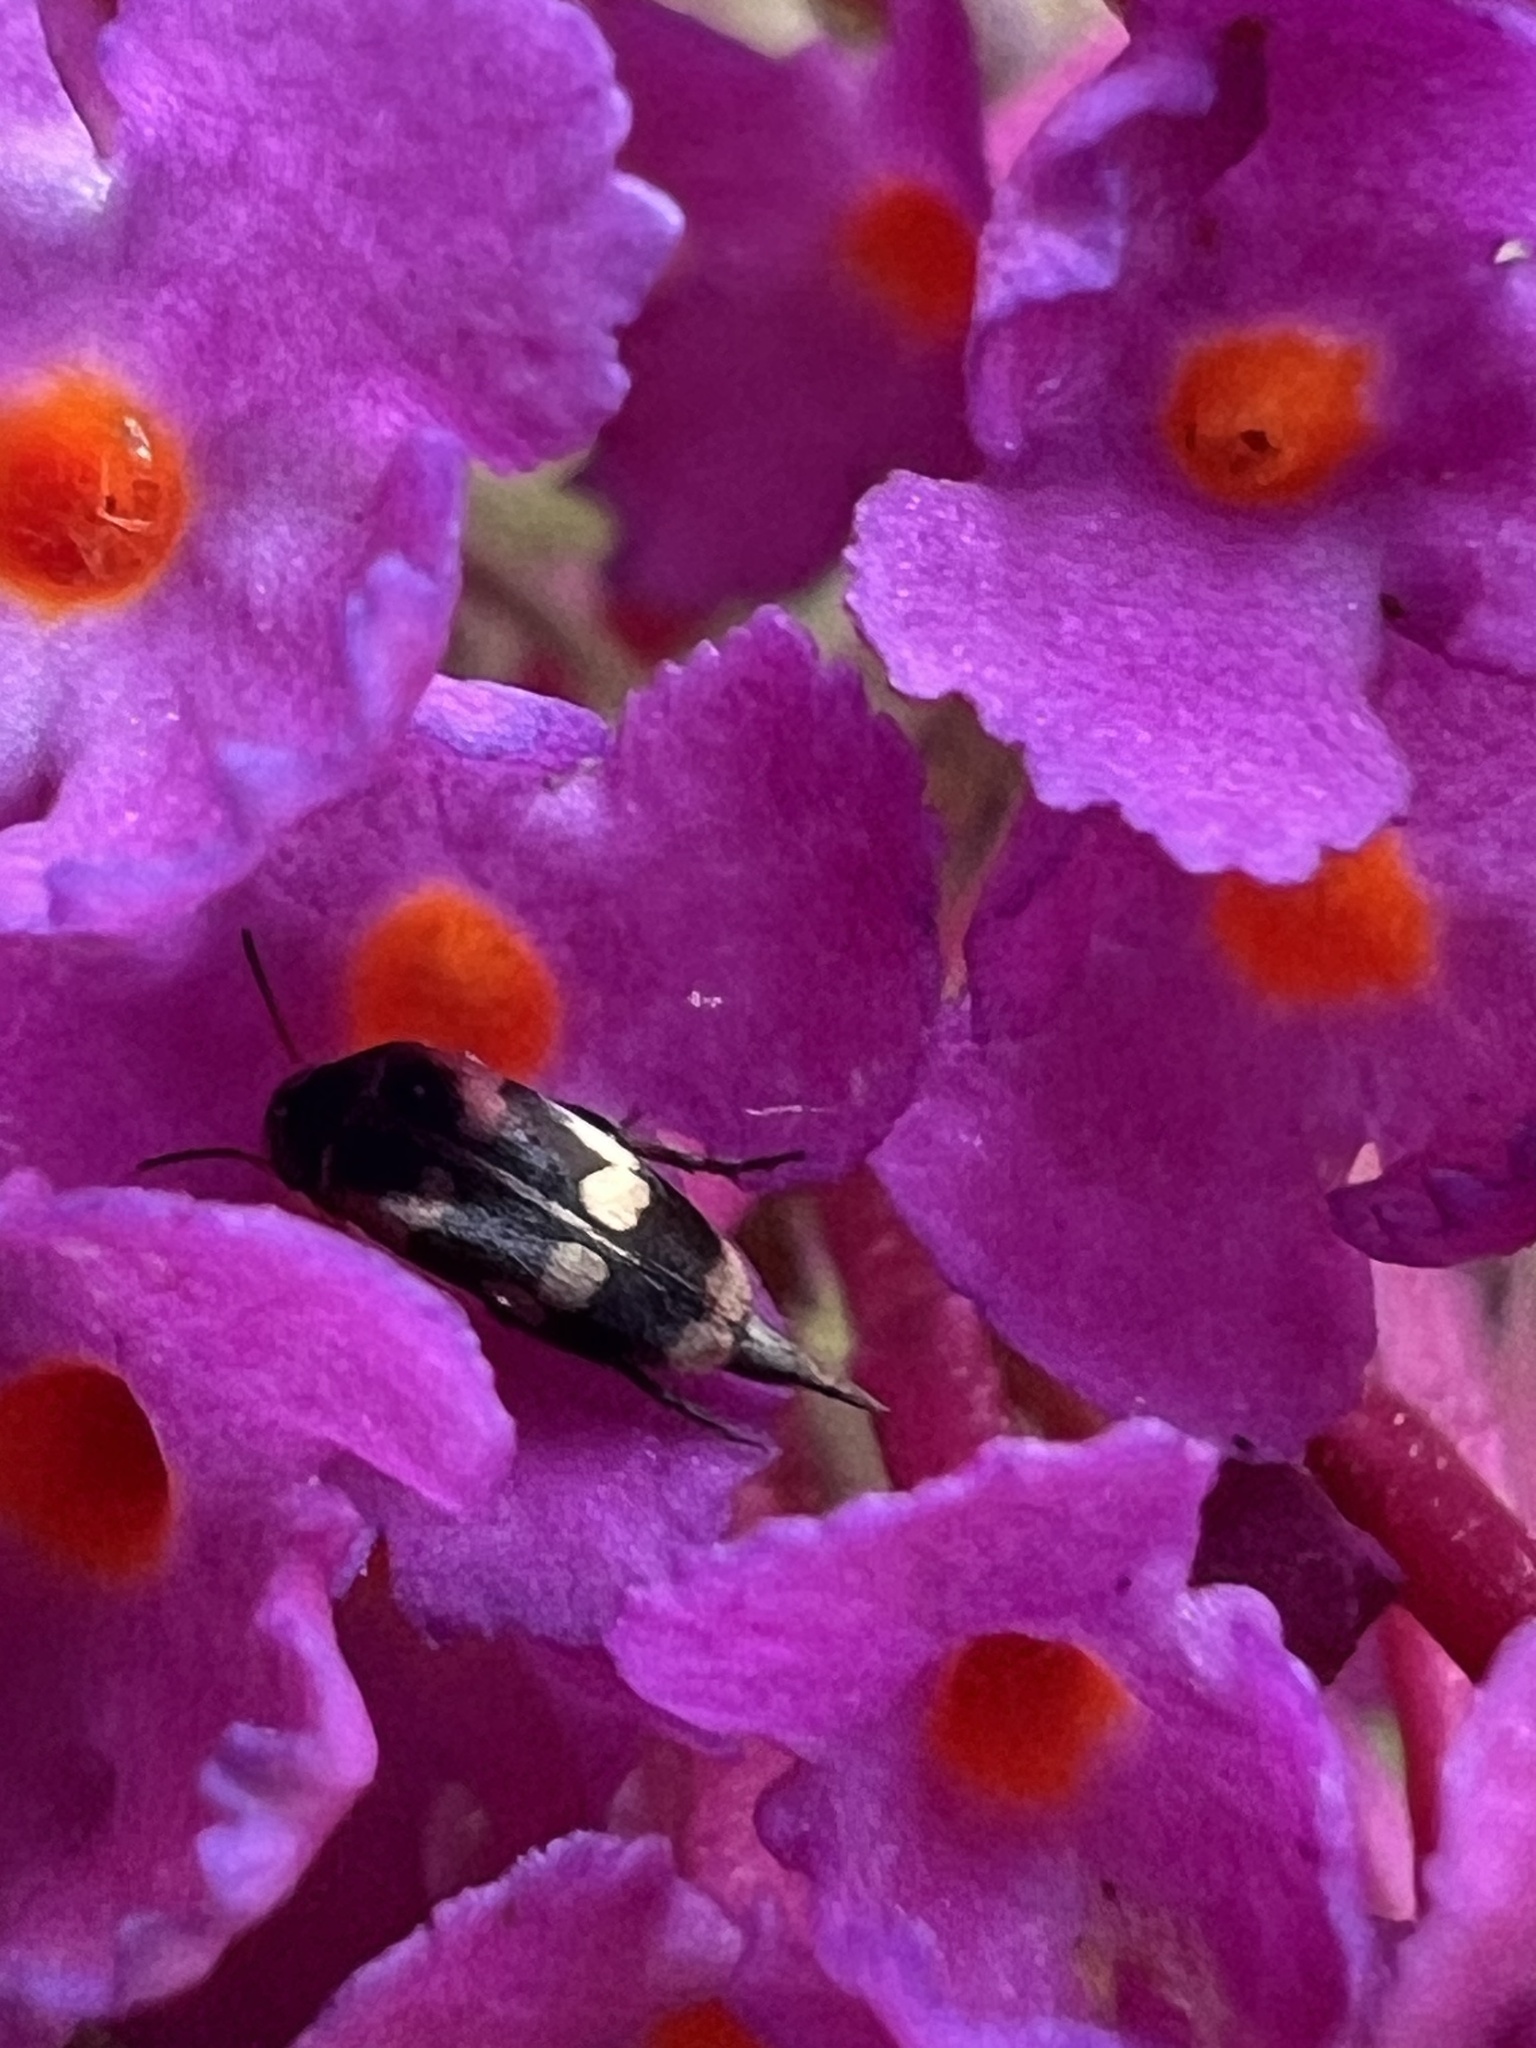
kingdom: Animalia
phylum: Arthropoda
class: Insecta
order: Coleoptera
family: Mordellidae
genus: Falsomordellistena
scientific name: Falsomordellistena pubescens
